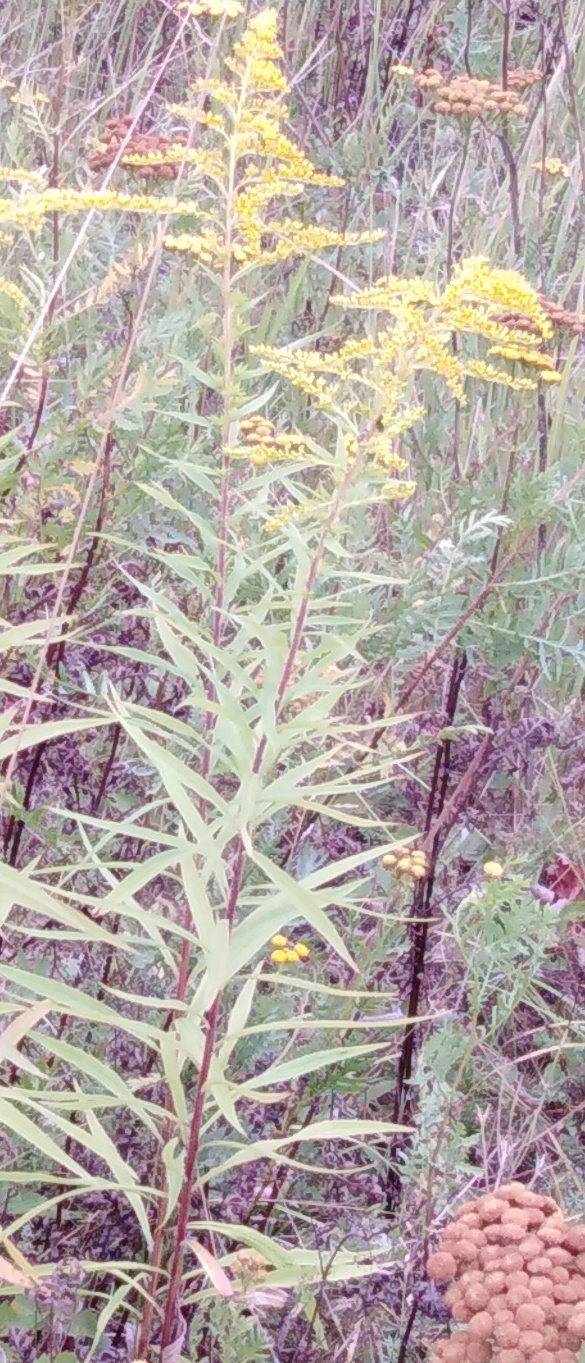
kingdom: Plantae
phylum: Tracheophyta
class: Magnoliopsida
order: Asterales
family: Asteraceae
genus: Solidago
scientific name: Solidago canadensis
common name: Canada goldenrod
